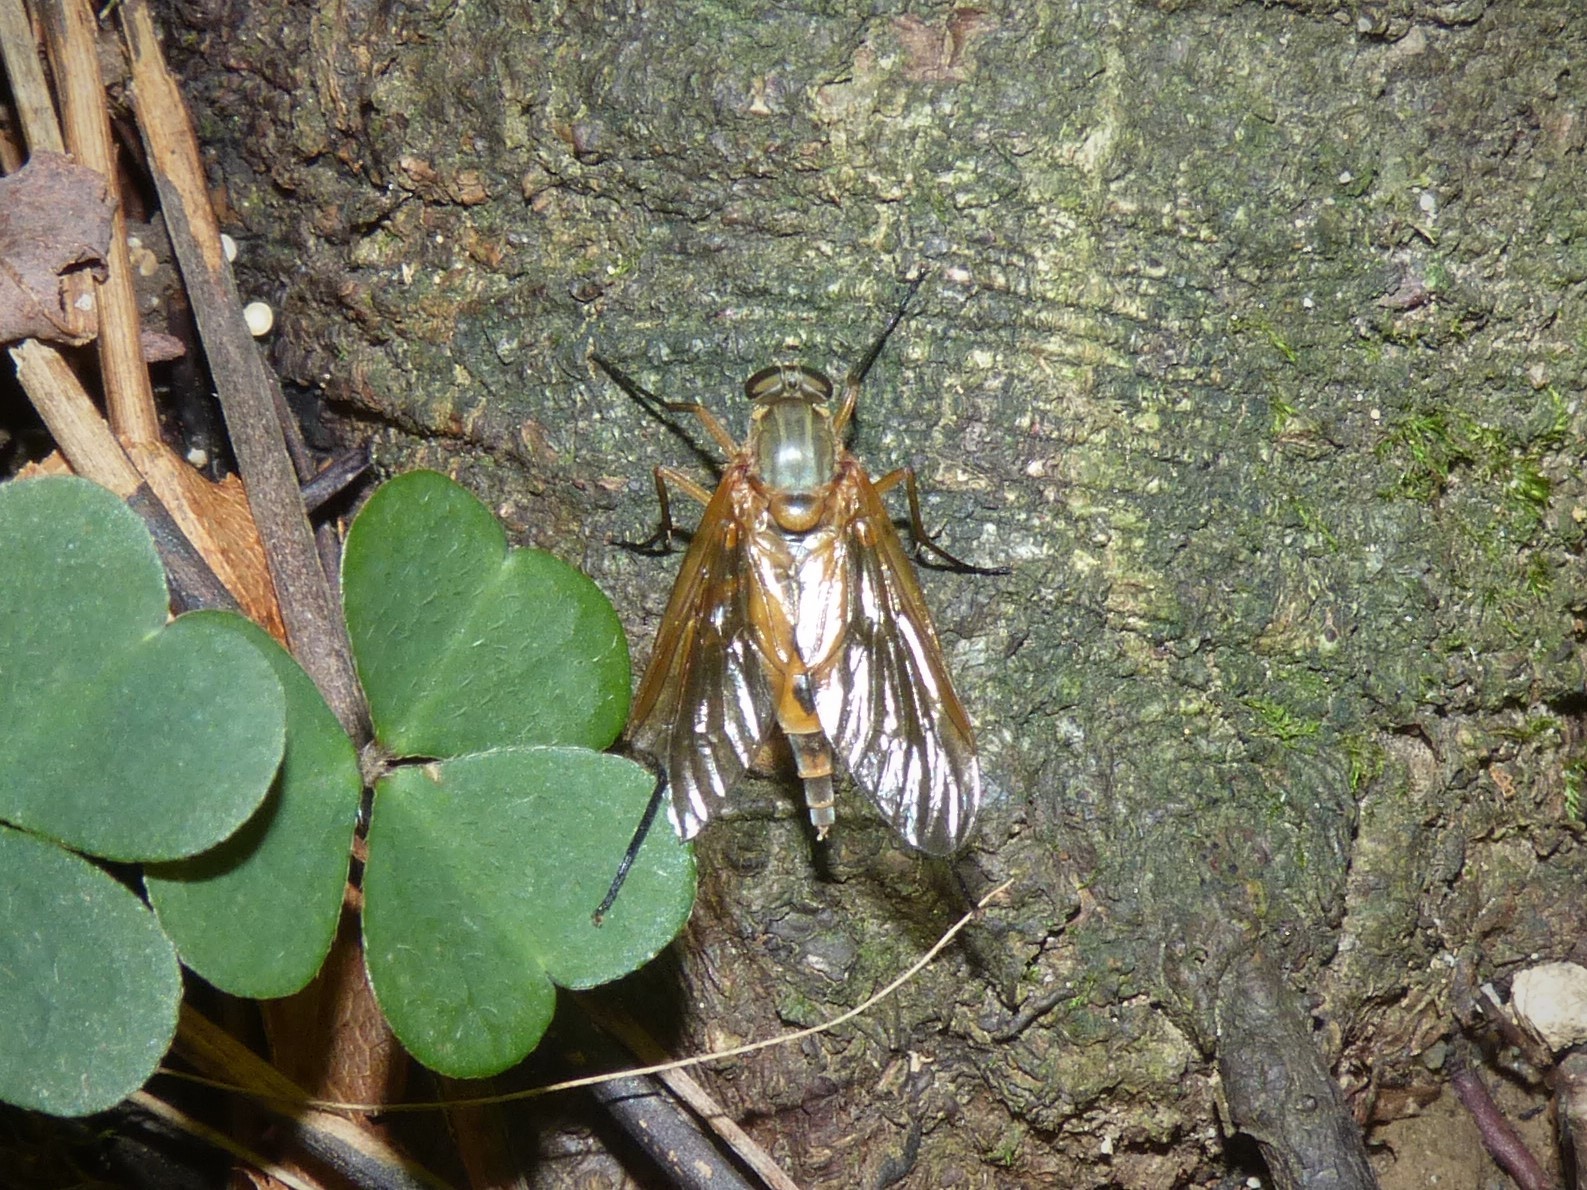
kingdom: Animalia
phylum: Arthropoda
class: Insecta
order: Diptera
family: Rhagionidae
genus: Rhagio
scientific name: Rhagio tringaria
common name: Marsh snipefly
